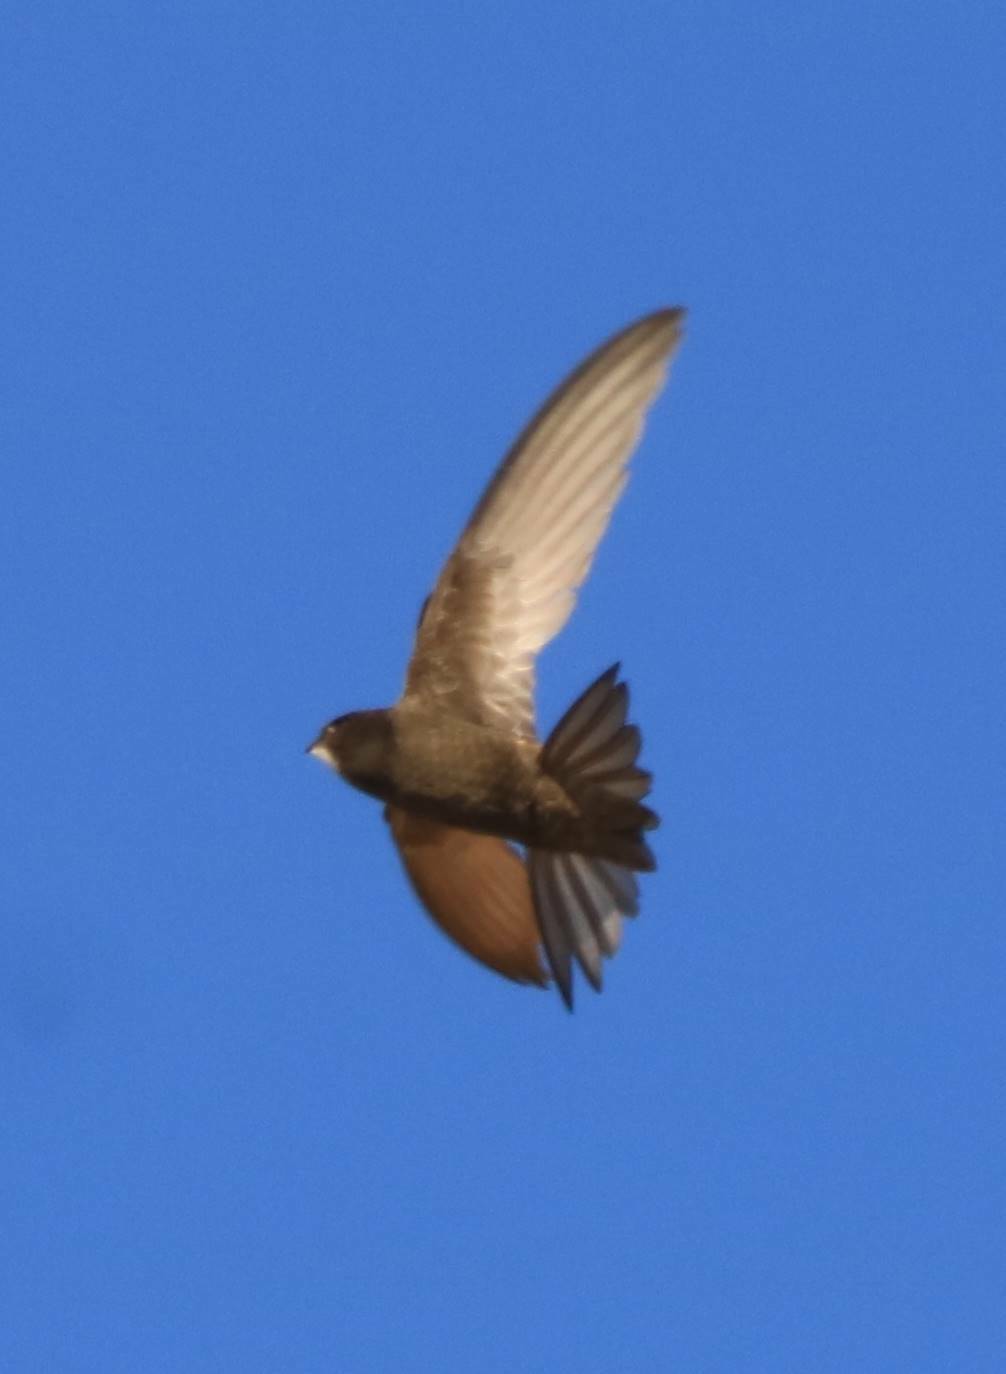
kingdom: Animalia
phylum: Chordata
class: Aves
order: Apodiformes
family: Apodidae
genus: Apus
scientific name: Apus apus
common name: Common swift
